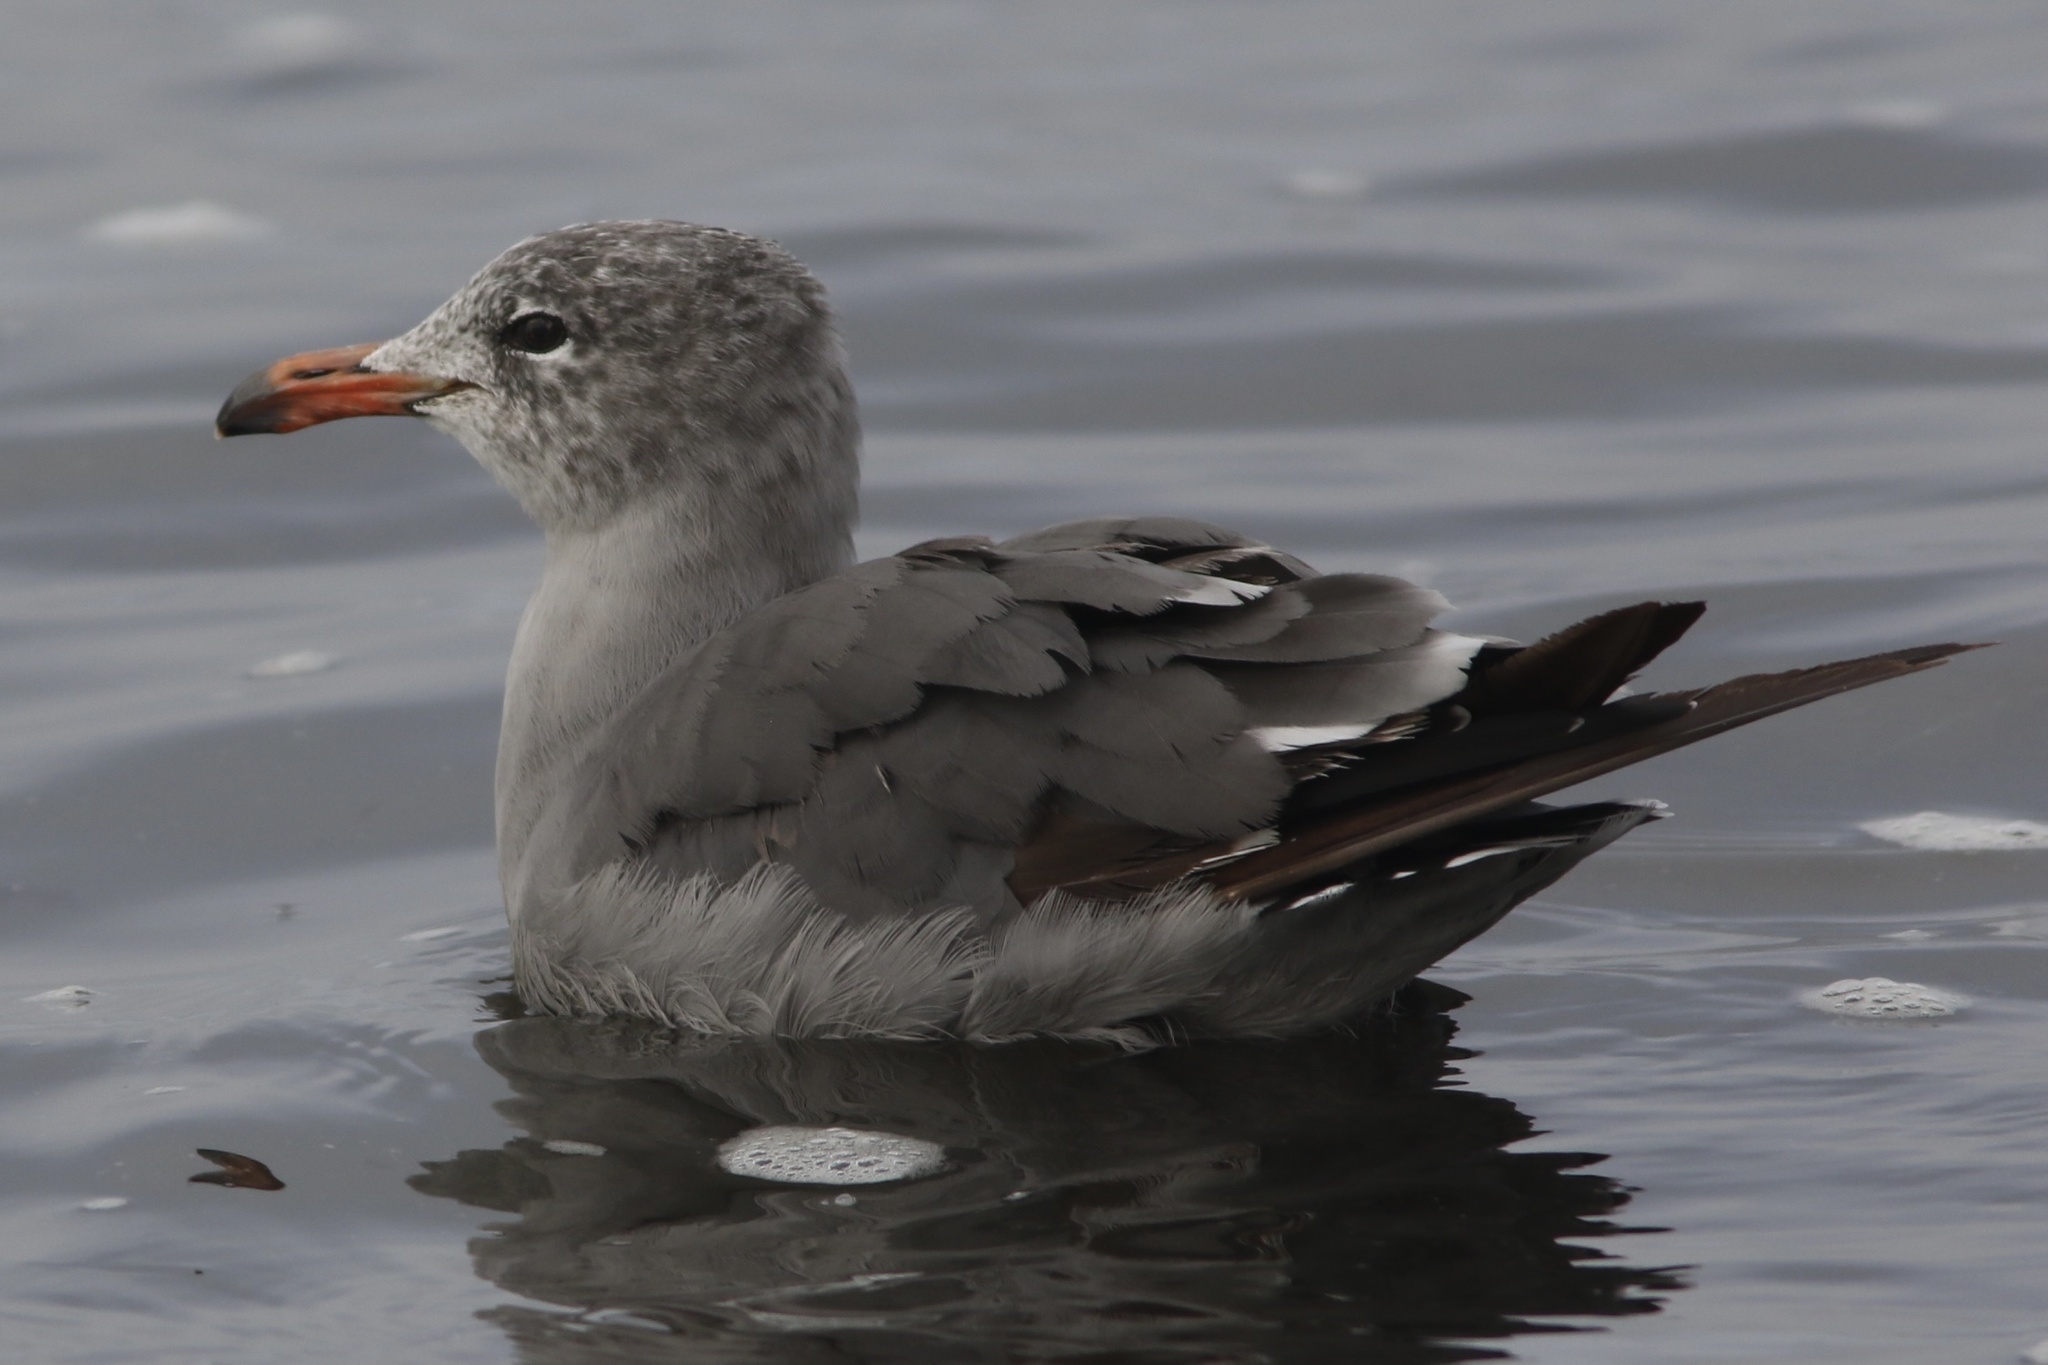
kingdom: Animalia
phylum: Chordata
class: Aves
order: Charadriiformes
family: Laridae
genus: Larus
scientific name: Larus heermanni
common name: Heermann's gull
